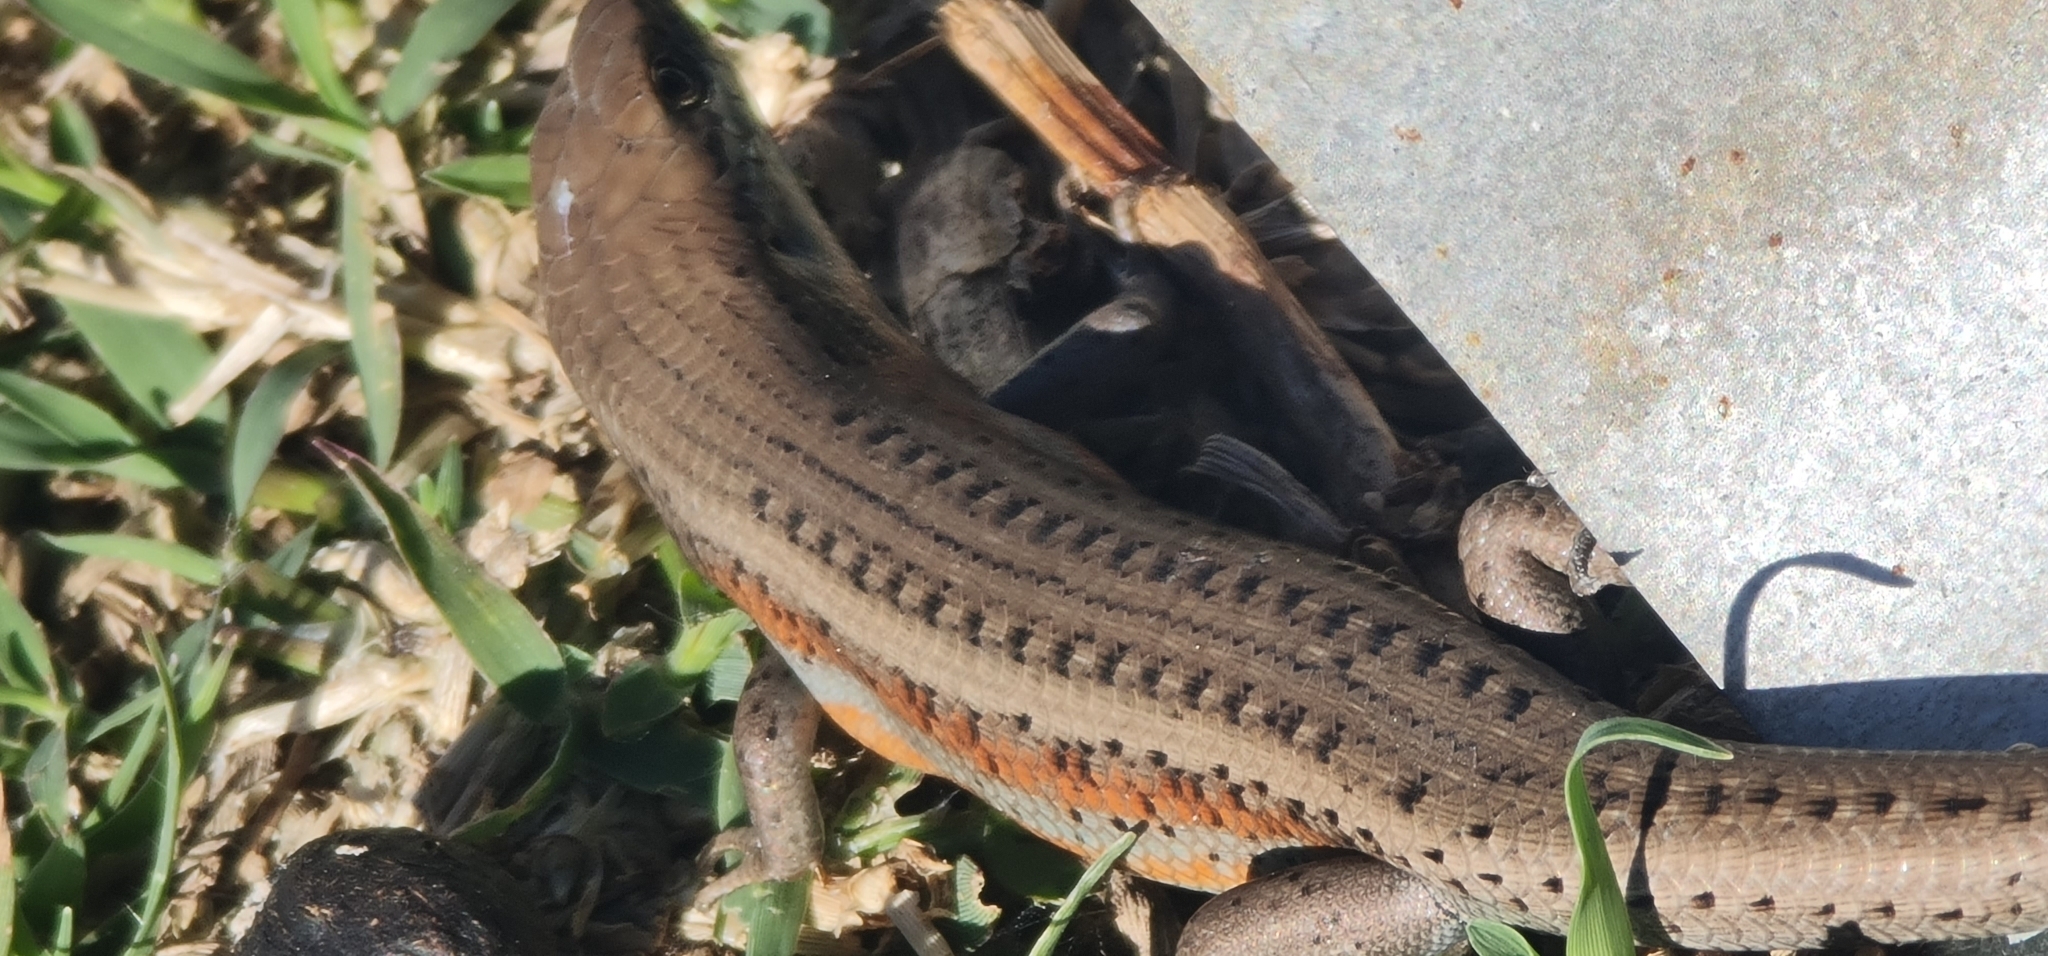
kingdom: Animalia
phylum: Chordata
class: Squamata
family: Scincidae
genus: Carlia
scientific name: Carlia tetradactyla
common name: Southern rainbow-skink
